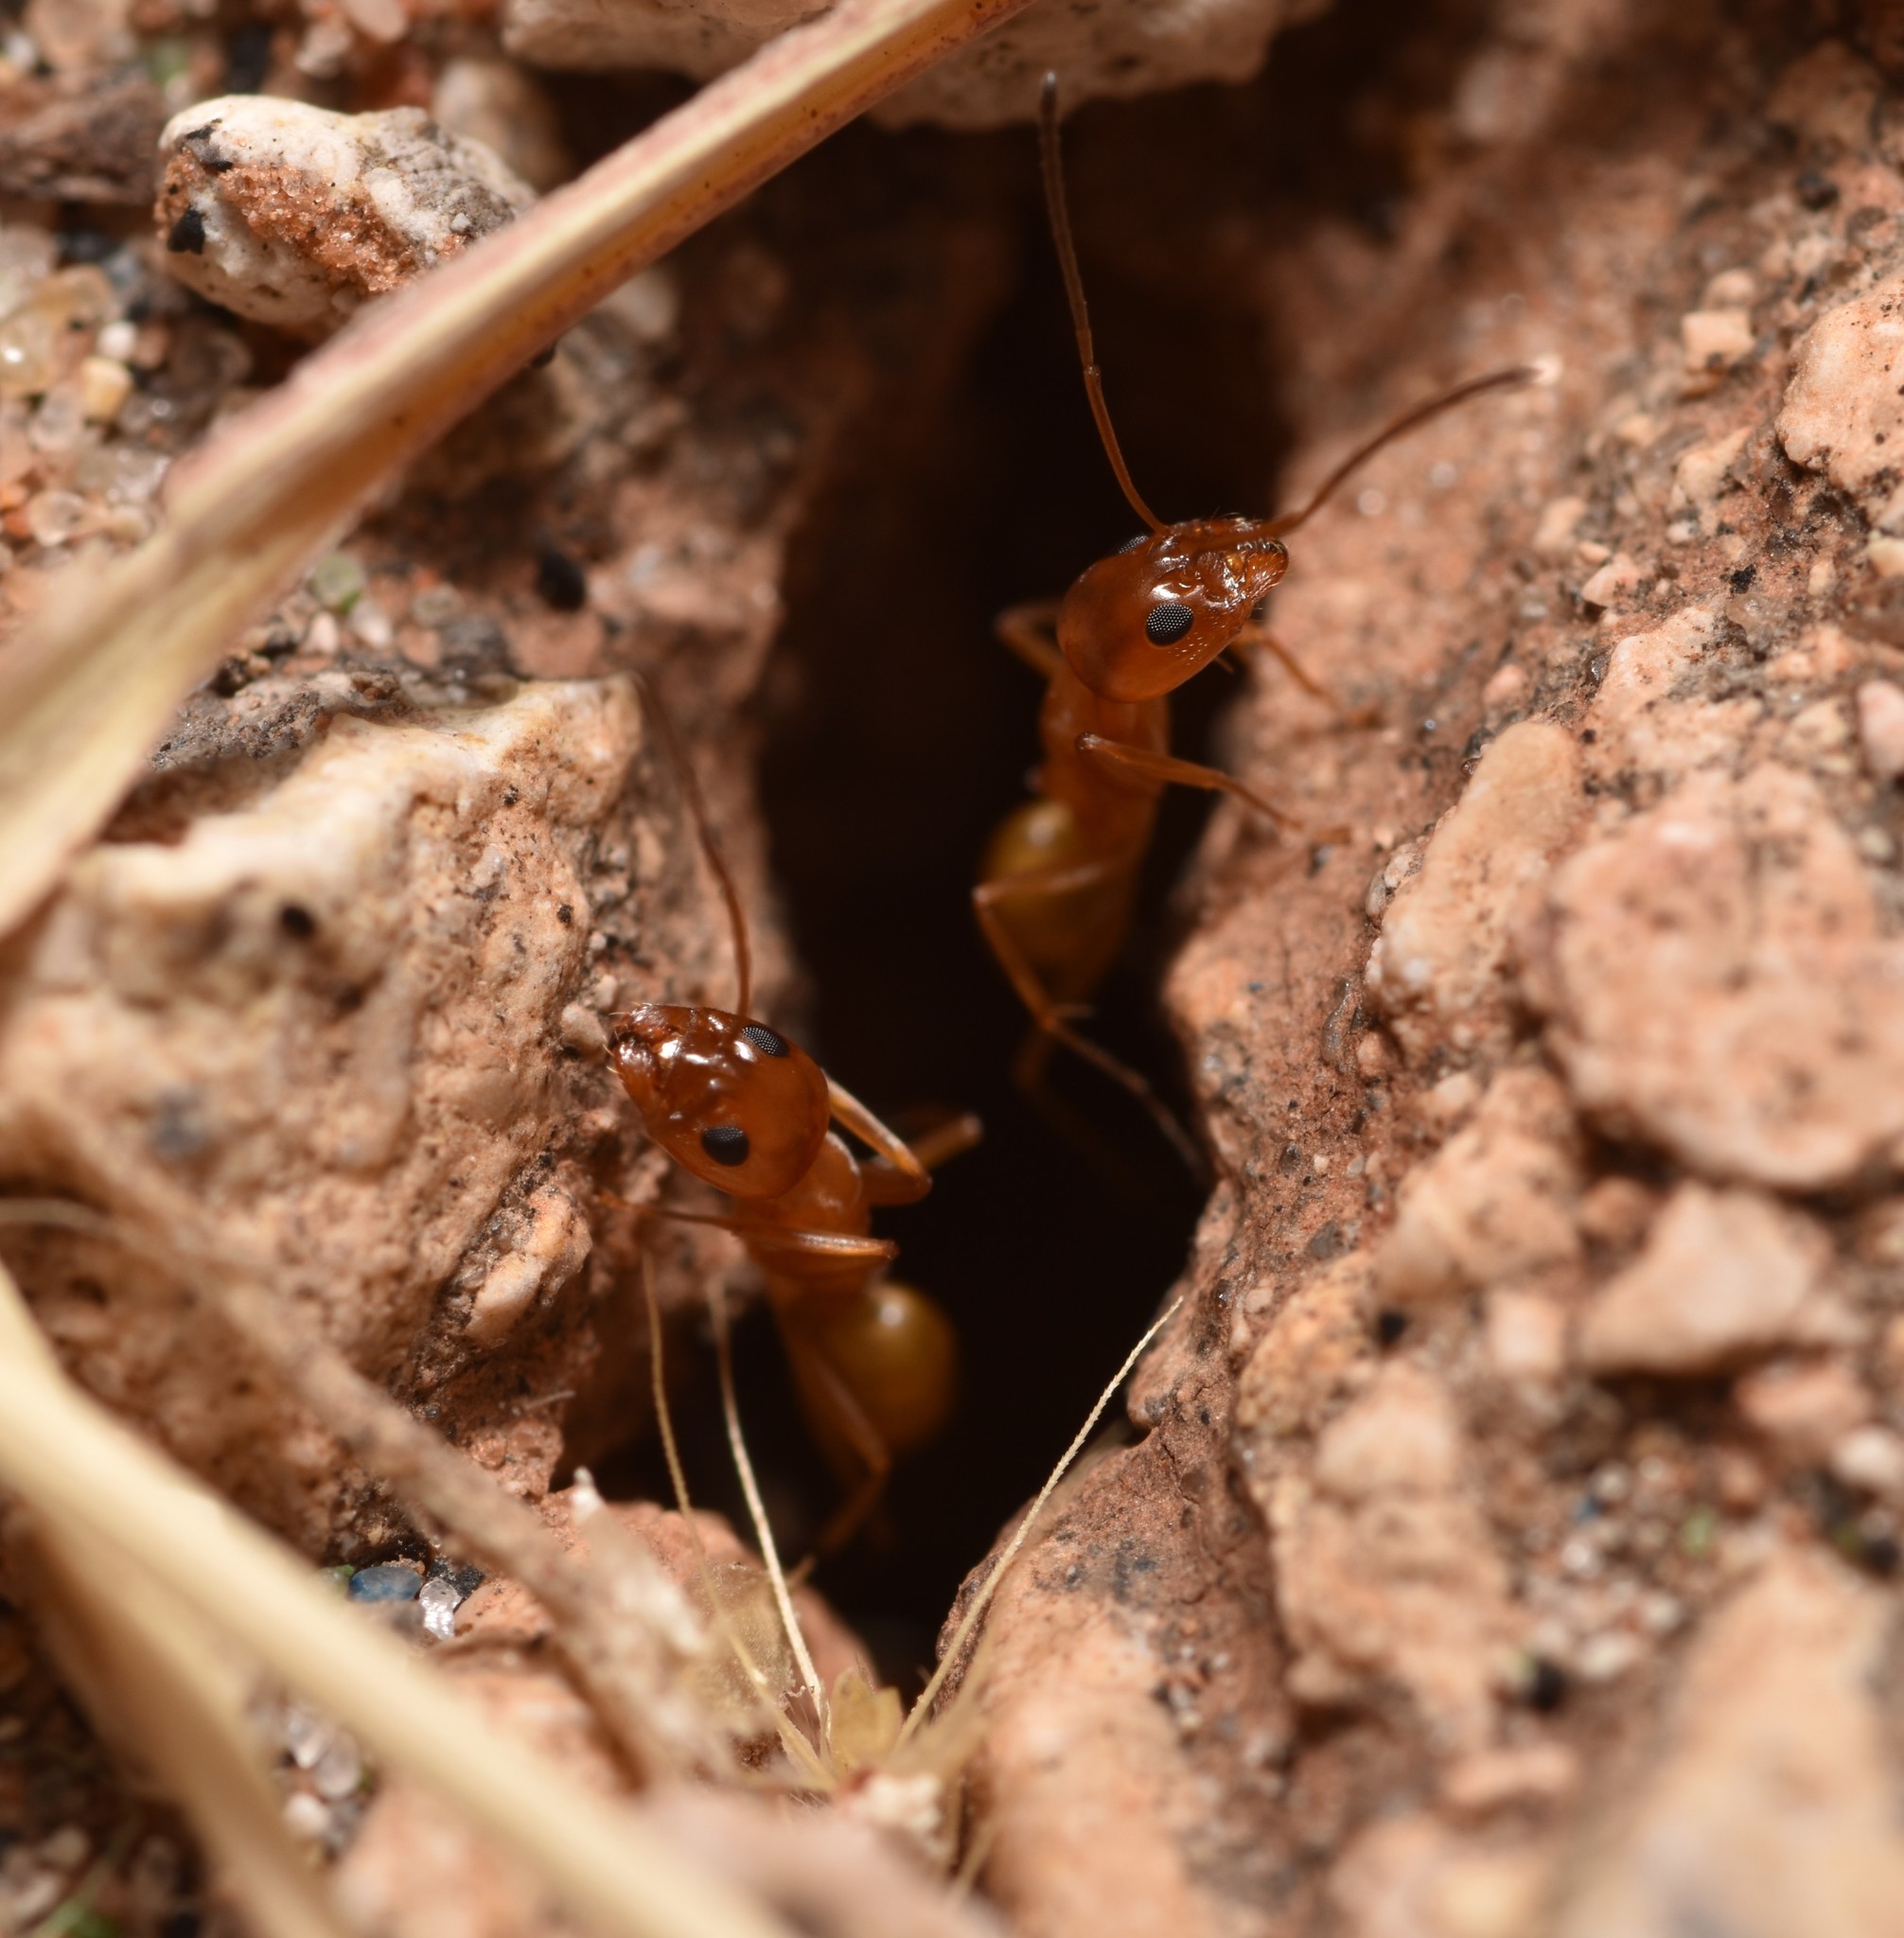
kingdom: Animalia
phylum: Arthropoda
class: Insecta
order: Hymenoptera
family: Formicidae
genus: Dorymyrmex
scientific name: Dorymyrmex flavus
